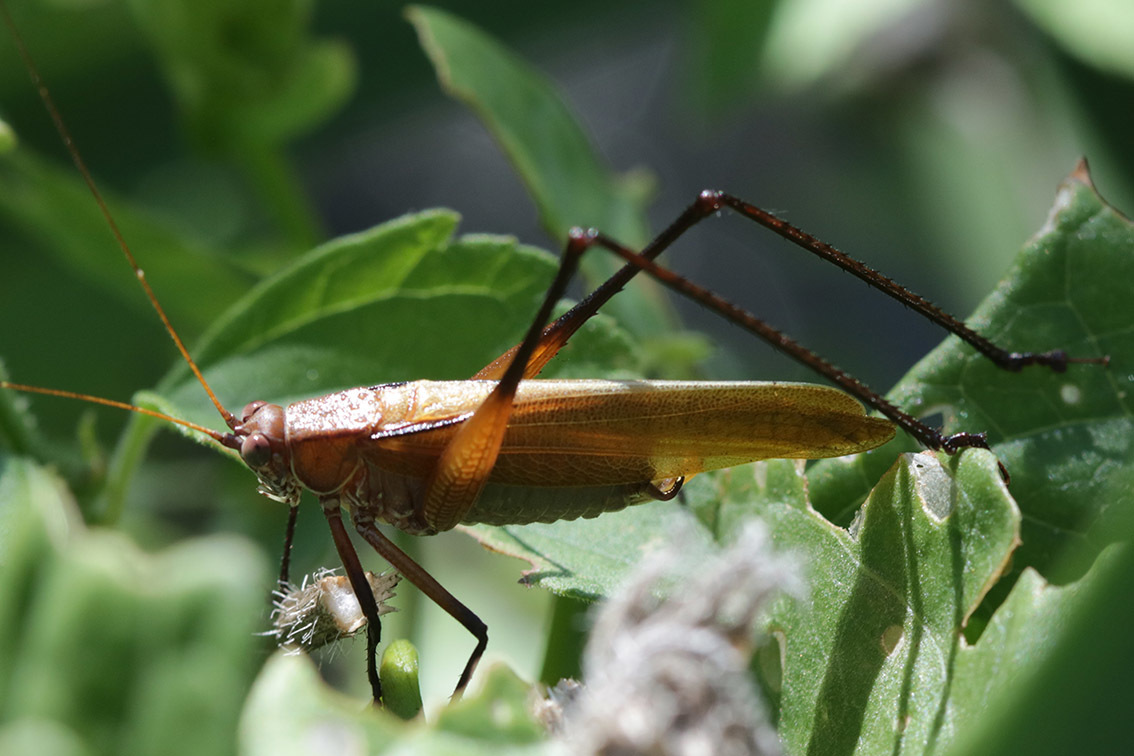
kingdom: Animalia
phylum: Arthropoda
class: Insecta
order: Orthoptera
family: Tettigoniidae
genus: Theudoria
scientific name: Theudoria melanocnemis
